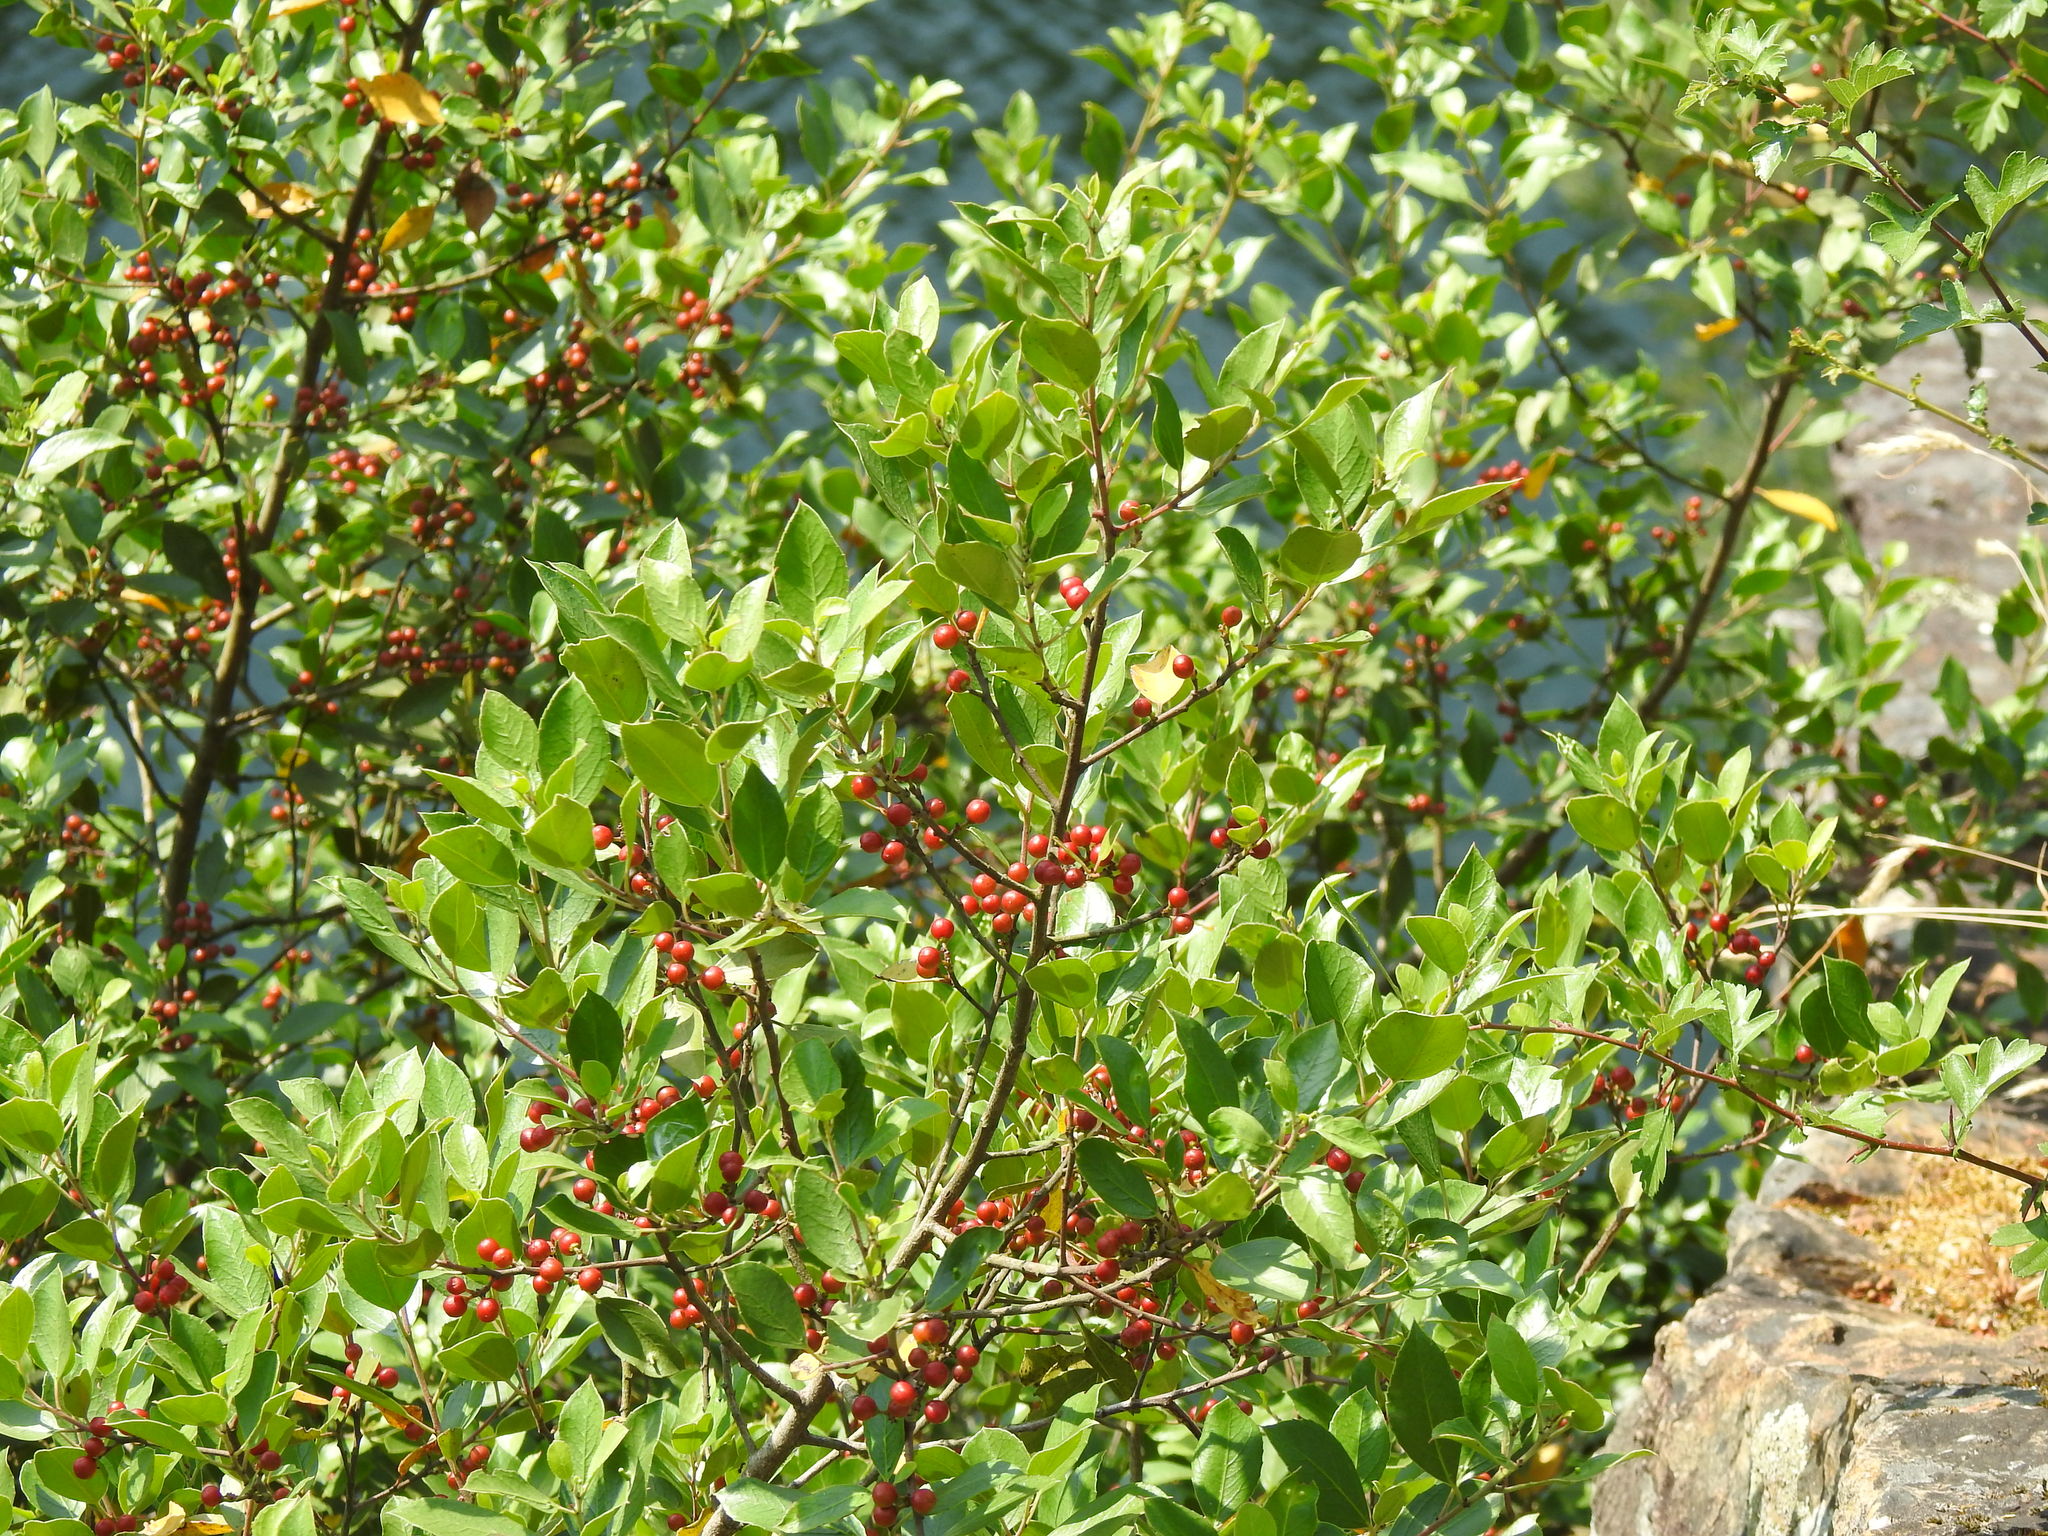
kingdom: Plantae
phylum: Tracheophyta
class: Magnoliopsida
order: Rosales
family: Rhamnaceae
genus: Rhamnus
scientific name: Rhamnus alaternus
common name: Mediterranean buckthorn
